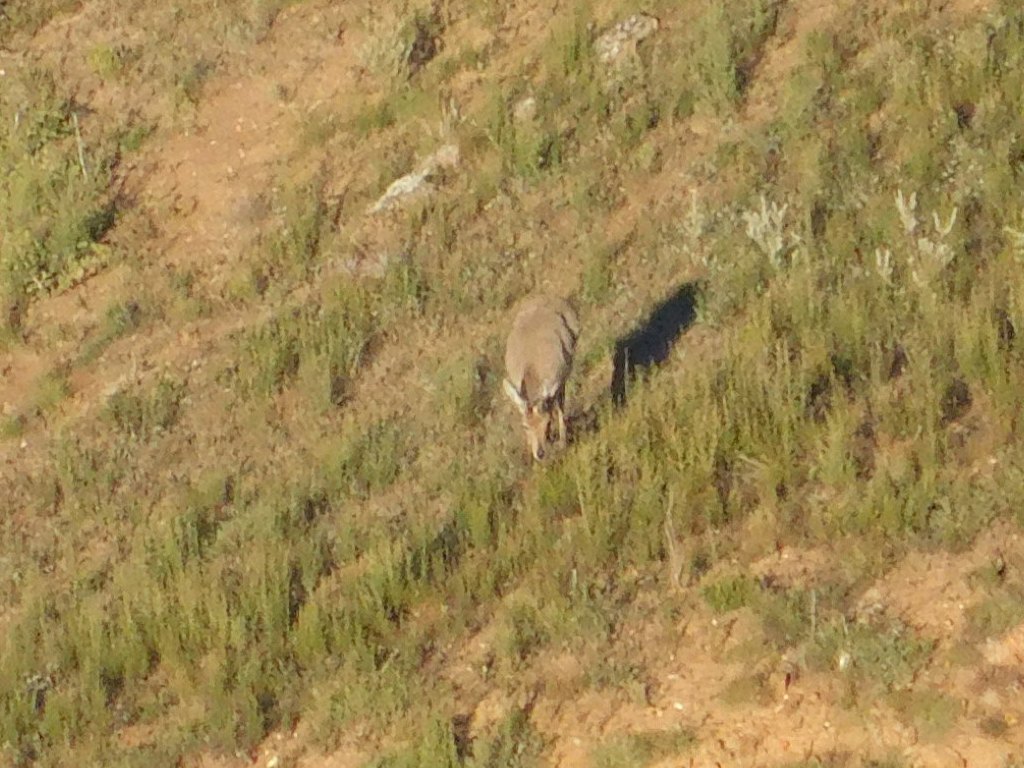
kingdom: Animalia
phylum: Chordata
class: Mammalia
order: Artiodactyla
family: Bovidae
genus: Pelea
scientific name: Pelea capreolus
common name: Common rhebok
